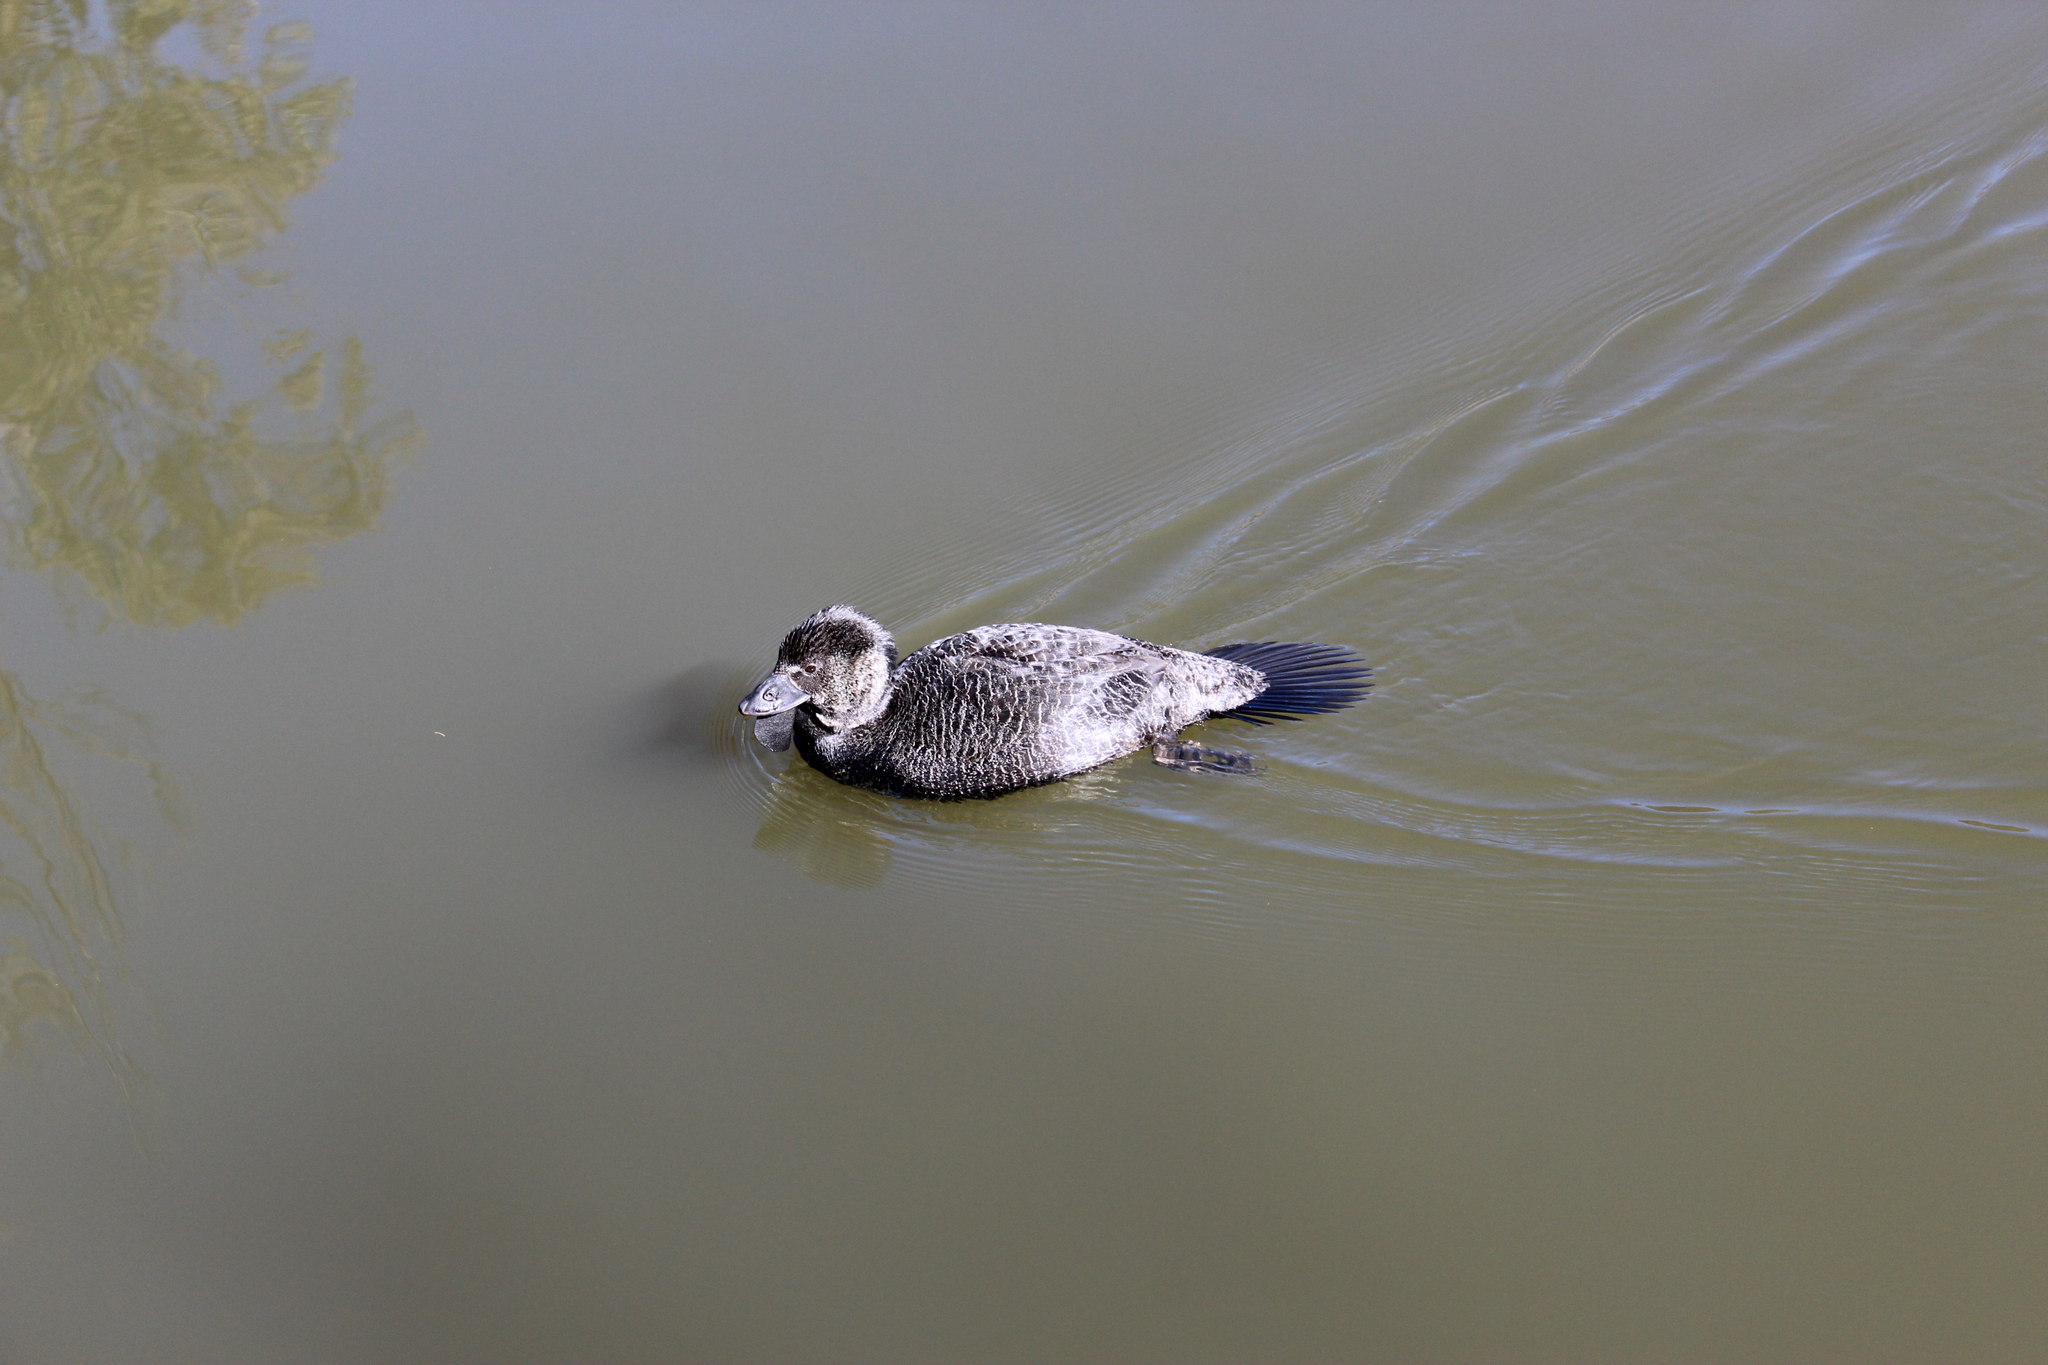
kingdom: Animalia
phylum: Chordata
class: Aves
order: Anseriformes
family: Anatidae
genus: Biziura
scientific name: Biziura lobata
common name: Musk duck
